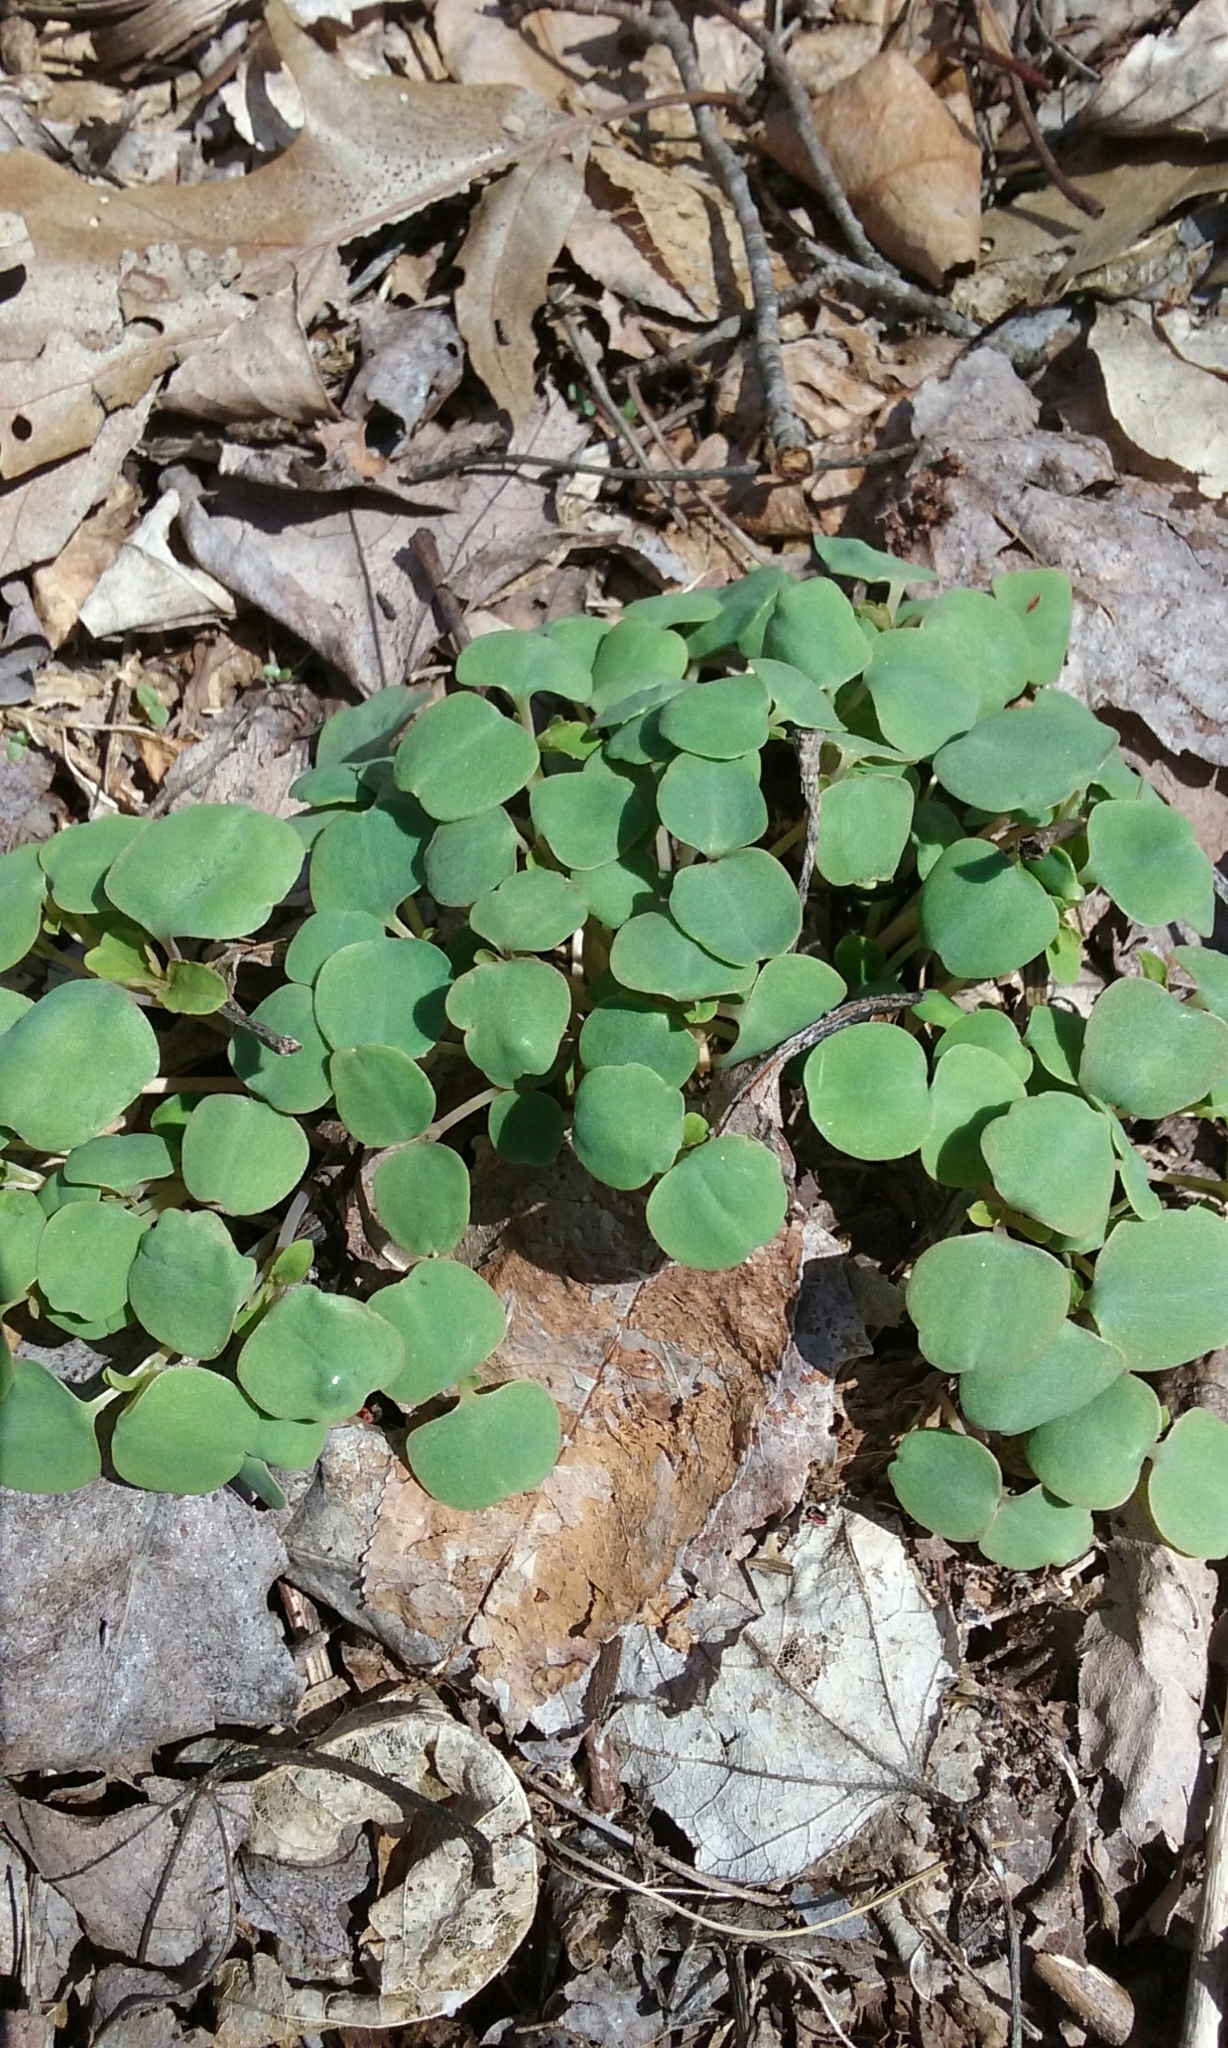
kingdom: Plantae
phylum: Tracheophyta
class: Magnoliopsida
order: Ericales
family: Balsaminaceae
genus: Impatiens
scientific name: Impatiens
